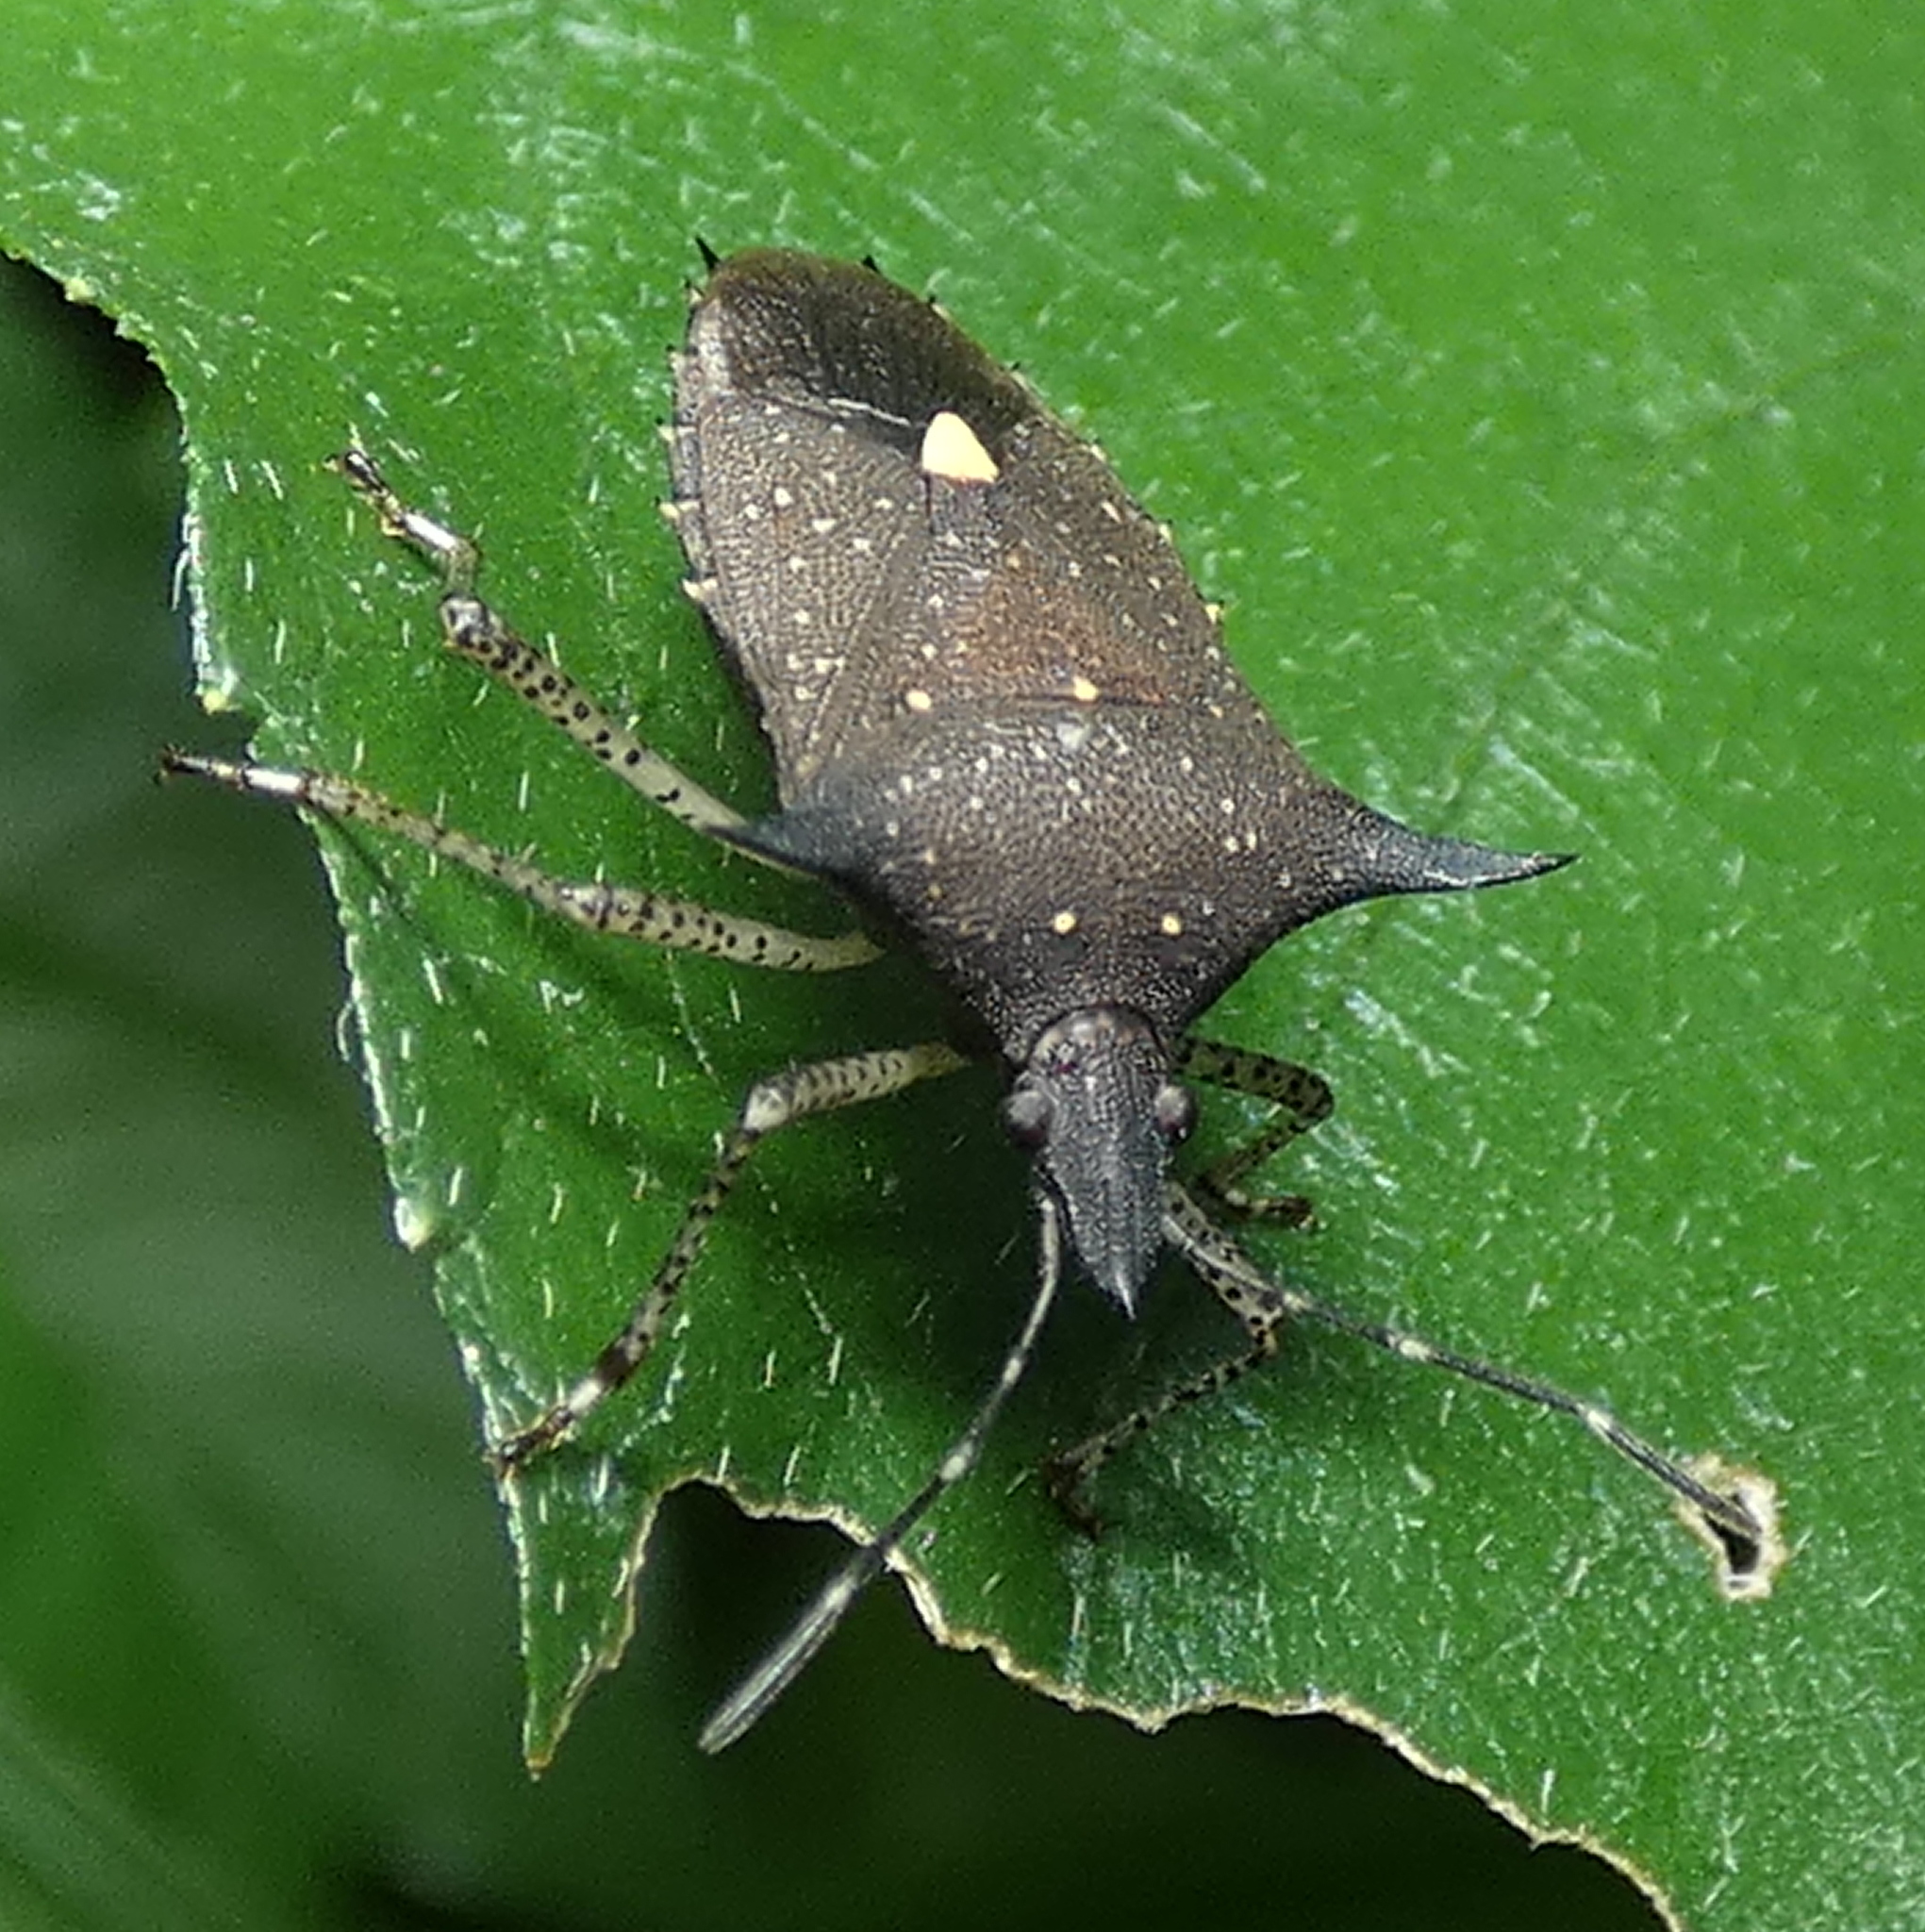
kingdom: Animalia
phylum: Arthropoda
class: Insecta
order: Hemiptera
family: Pentatomidae
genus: Proxys
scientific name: Proxys albopunctulatus
